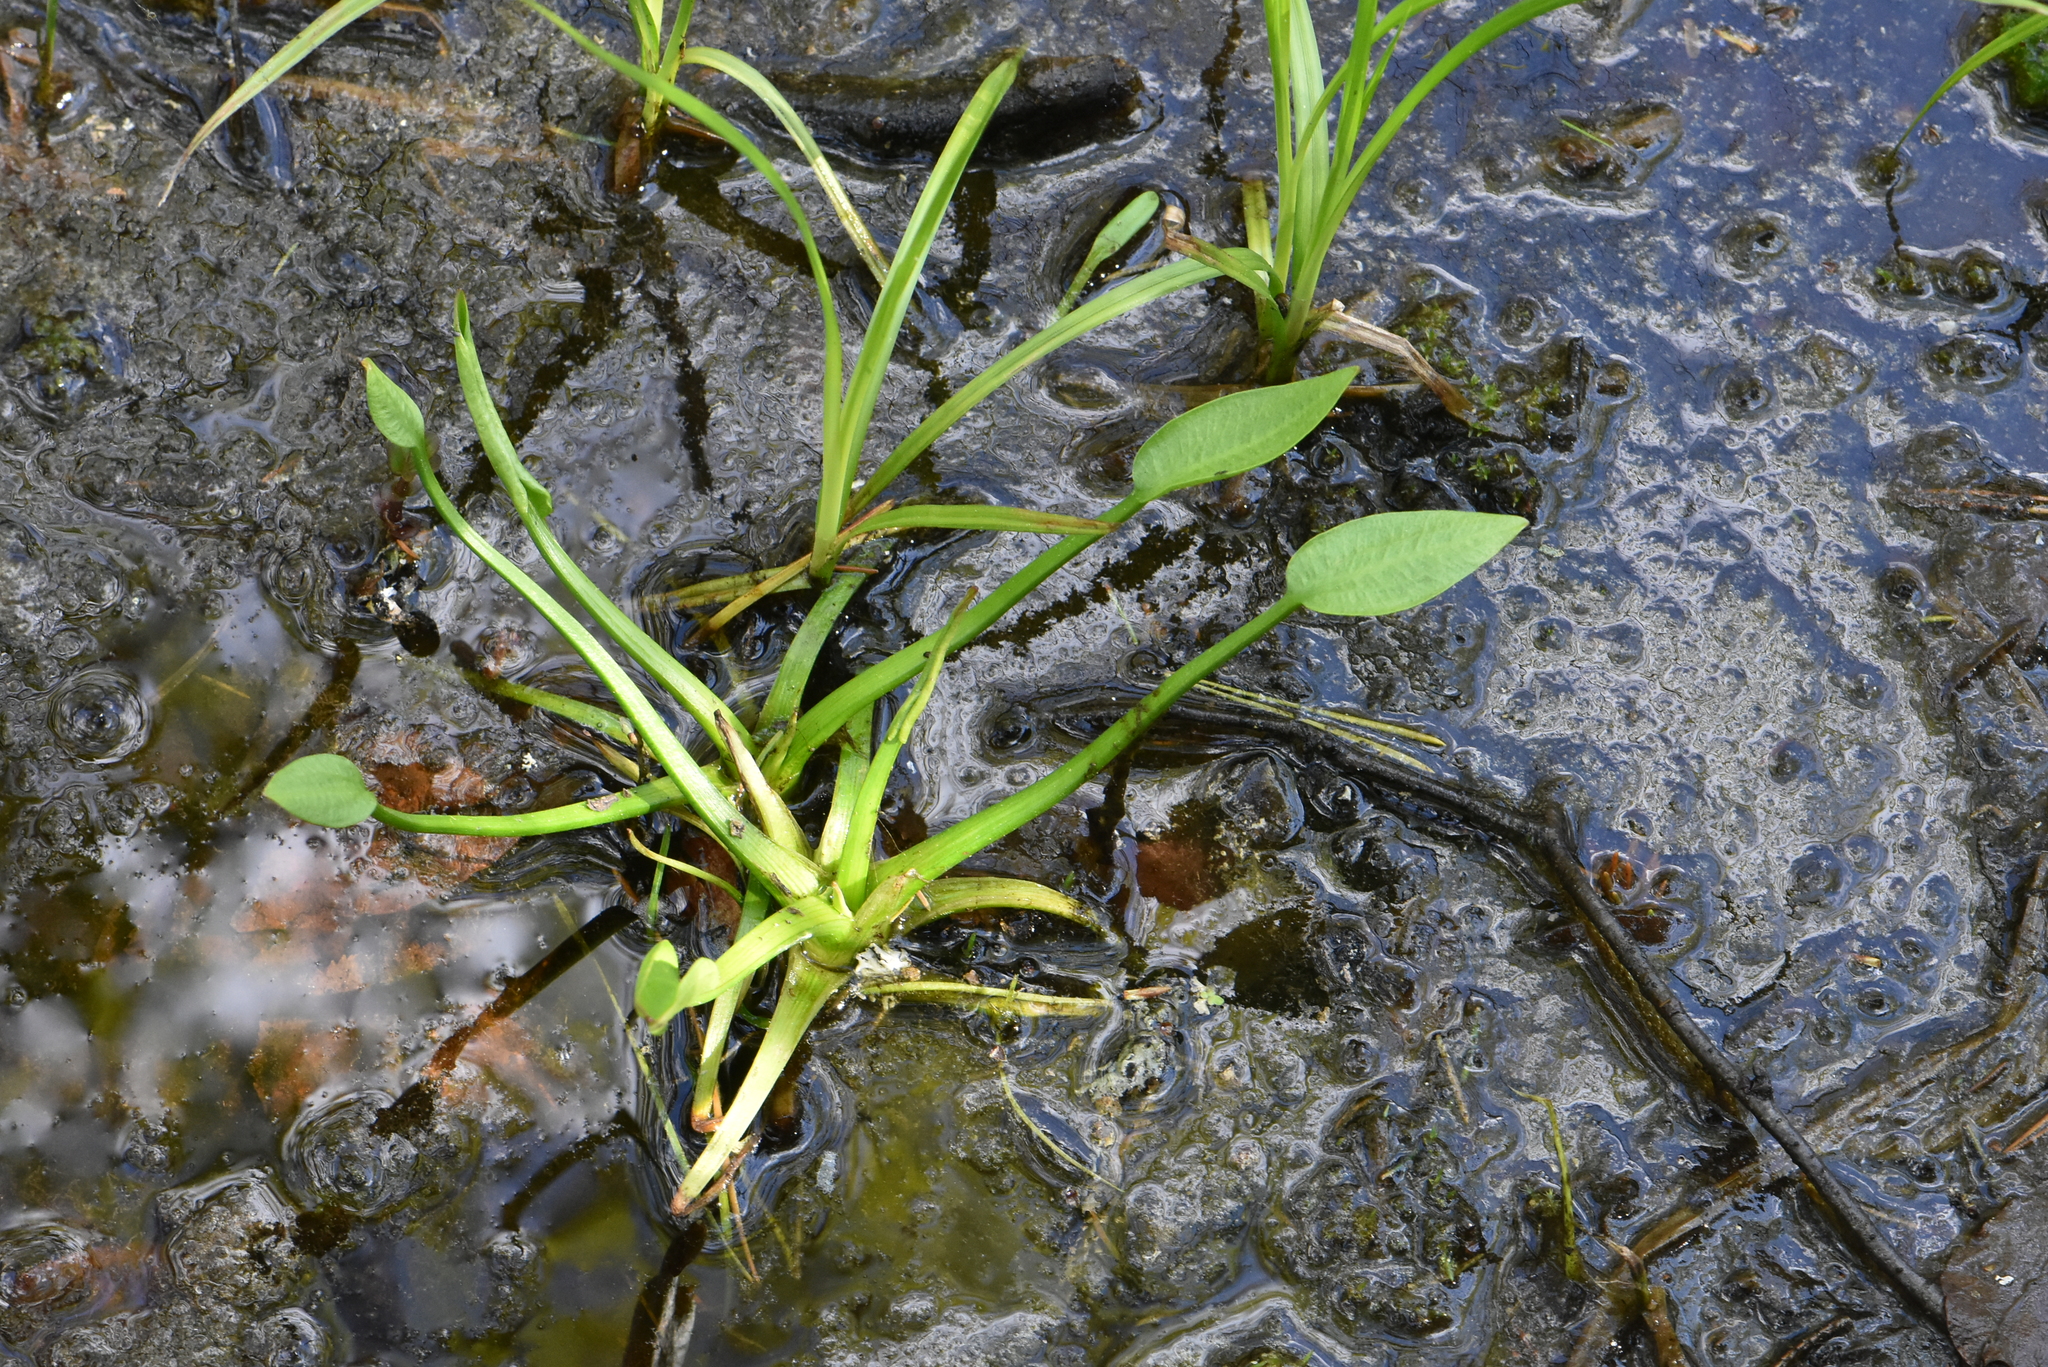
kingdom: Plantae
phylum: Tracheophyta
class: Liliopsida
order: Alismatales
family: Alismataceae
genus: Alisma
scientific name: Alisma plantago-aquatica
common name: Water-plantain
